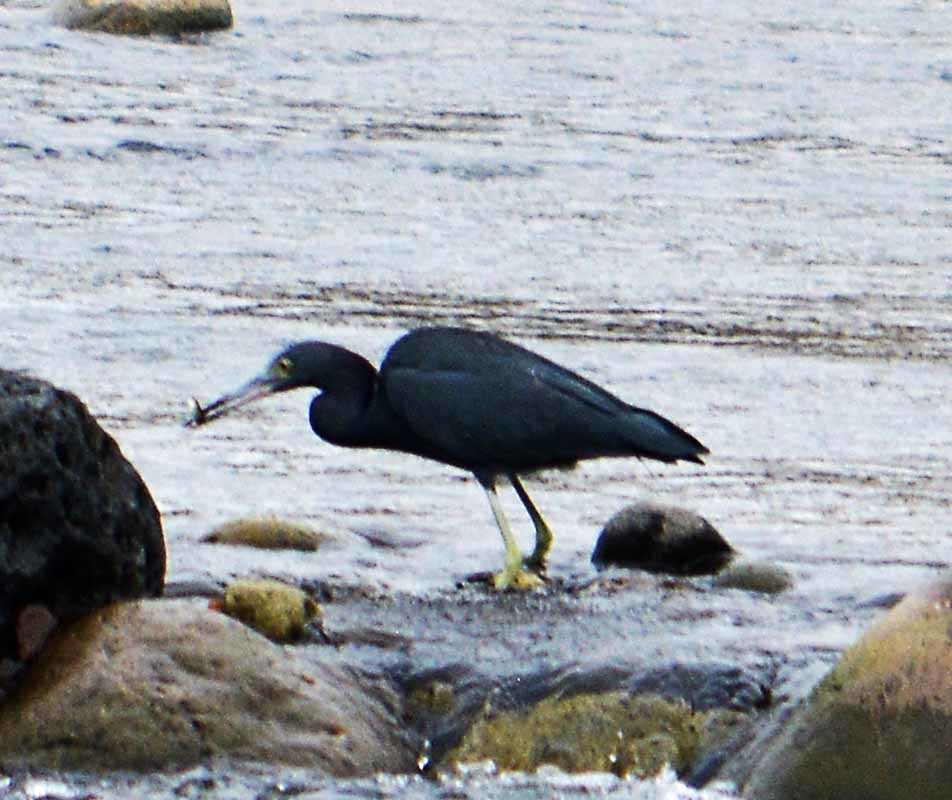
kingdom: Animalia
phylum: Chordata
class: Aves
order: Pelecaniformes
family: Ardeidae
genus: Egretta
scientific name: Egretta caerulea
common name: Little blue heron
